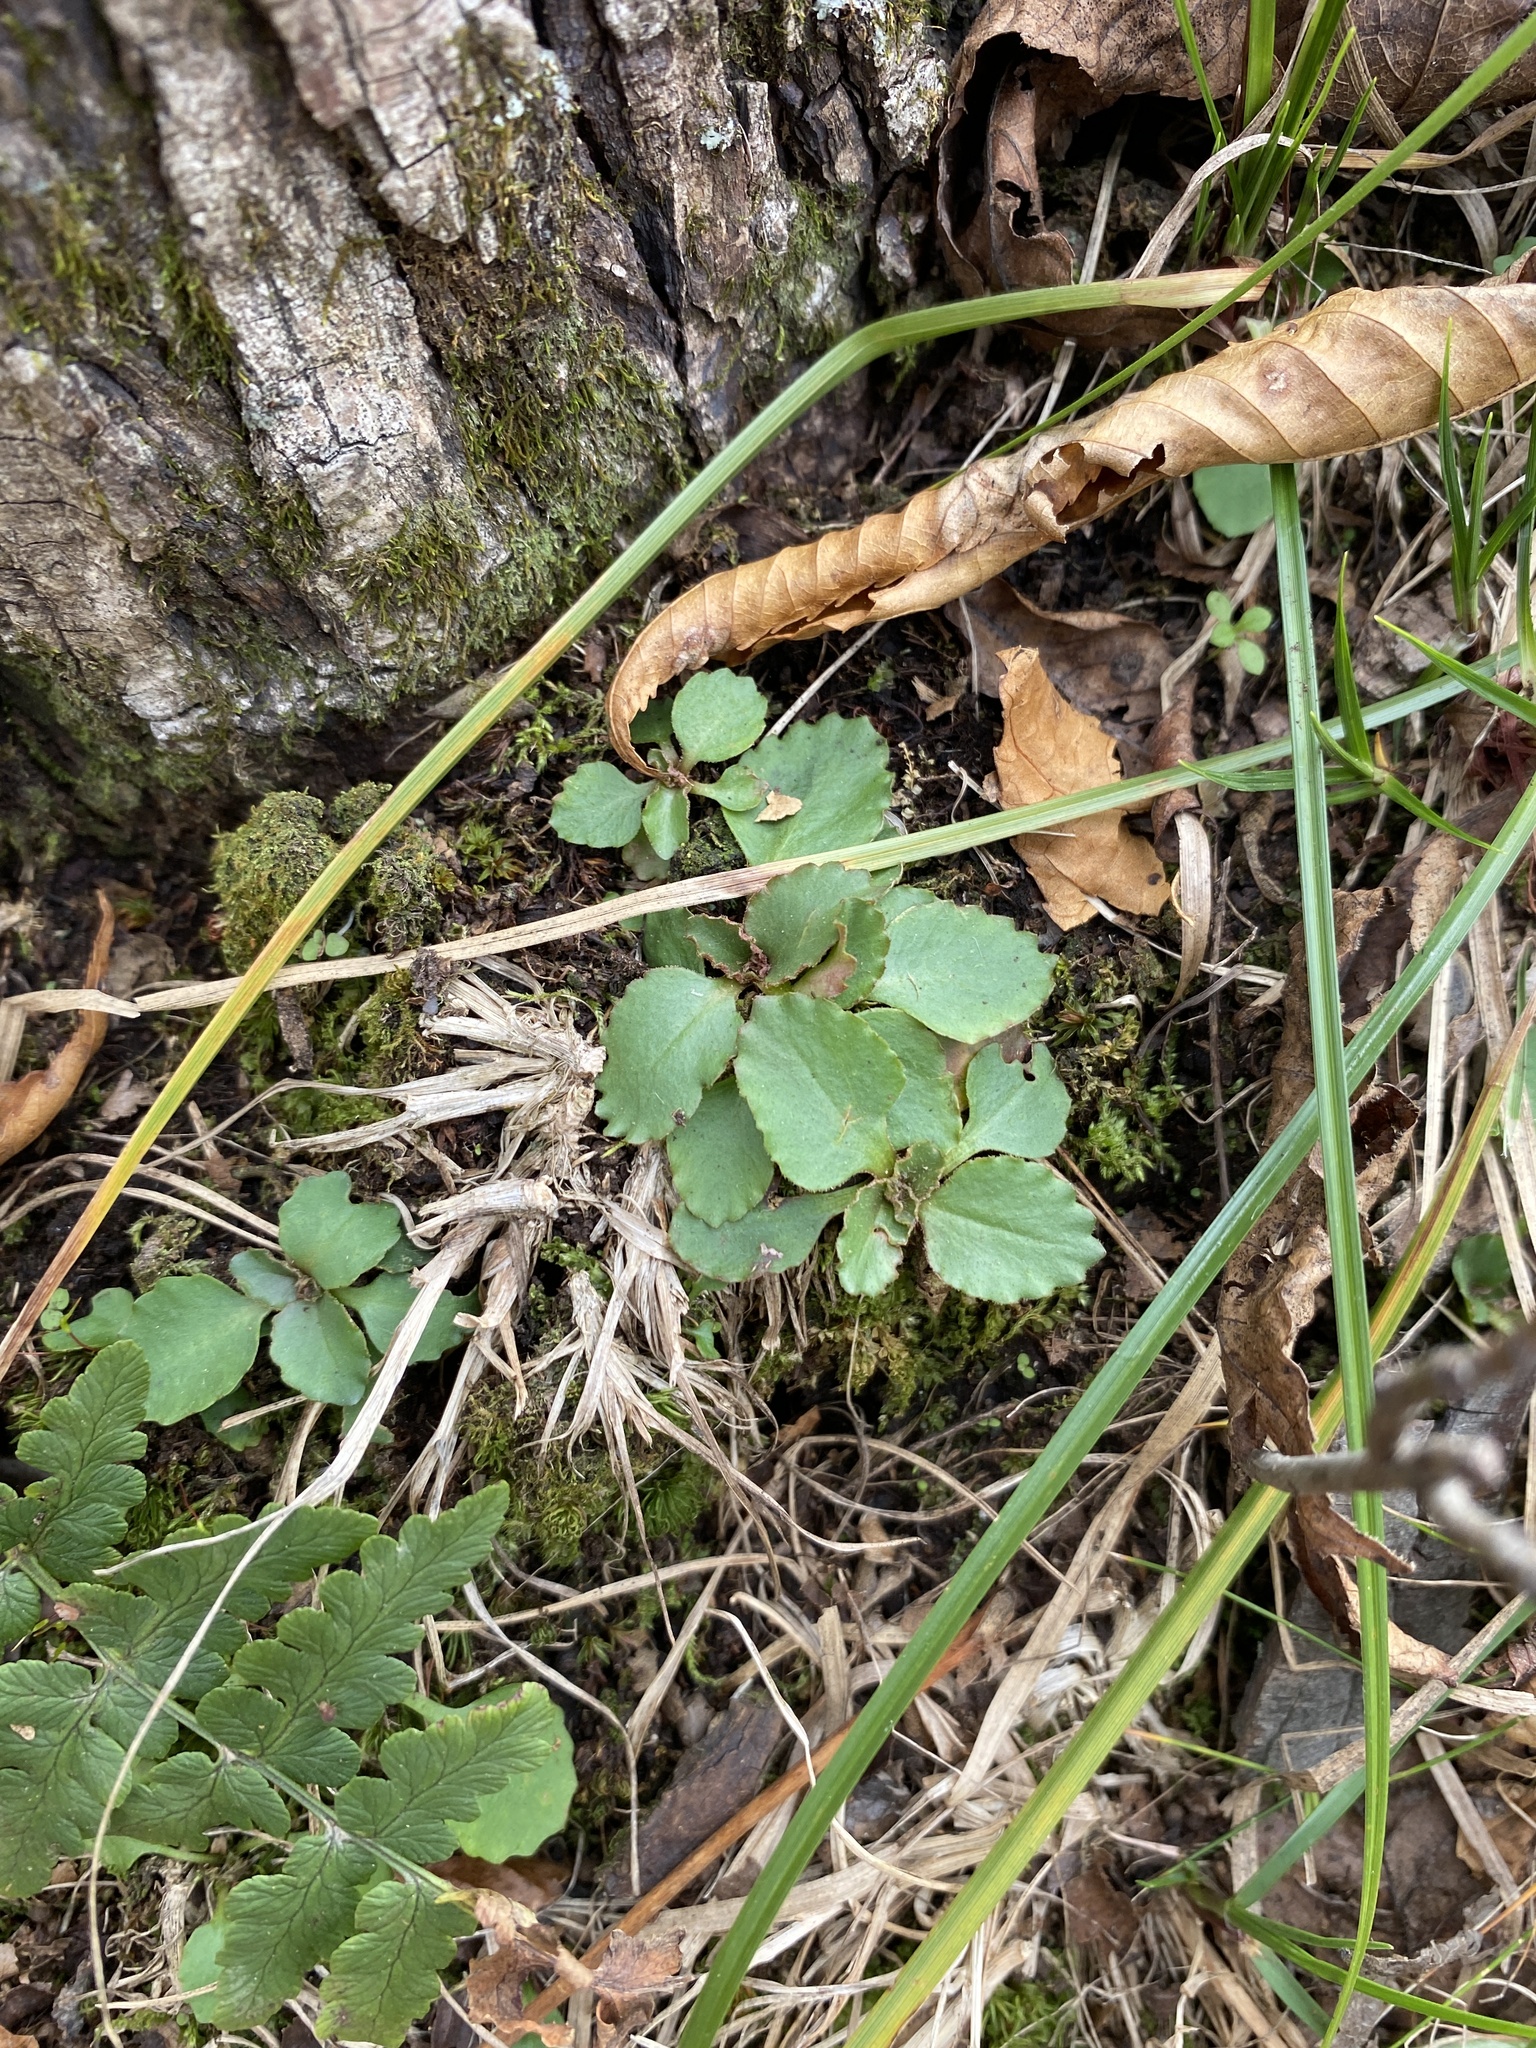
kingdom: Plantae
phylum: Tracheophyta
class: Magnoliopsida
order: Saxifragales
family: Saxifragaceae
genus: Micranthes
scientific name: Micranthes virginiensis
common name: Early saxifrage
